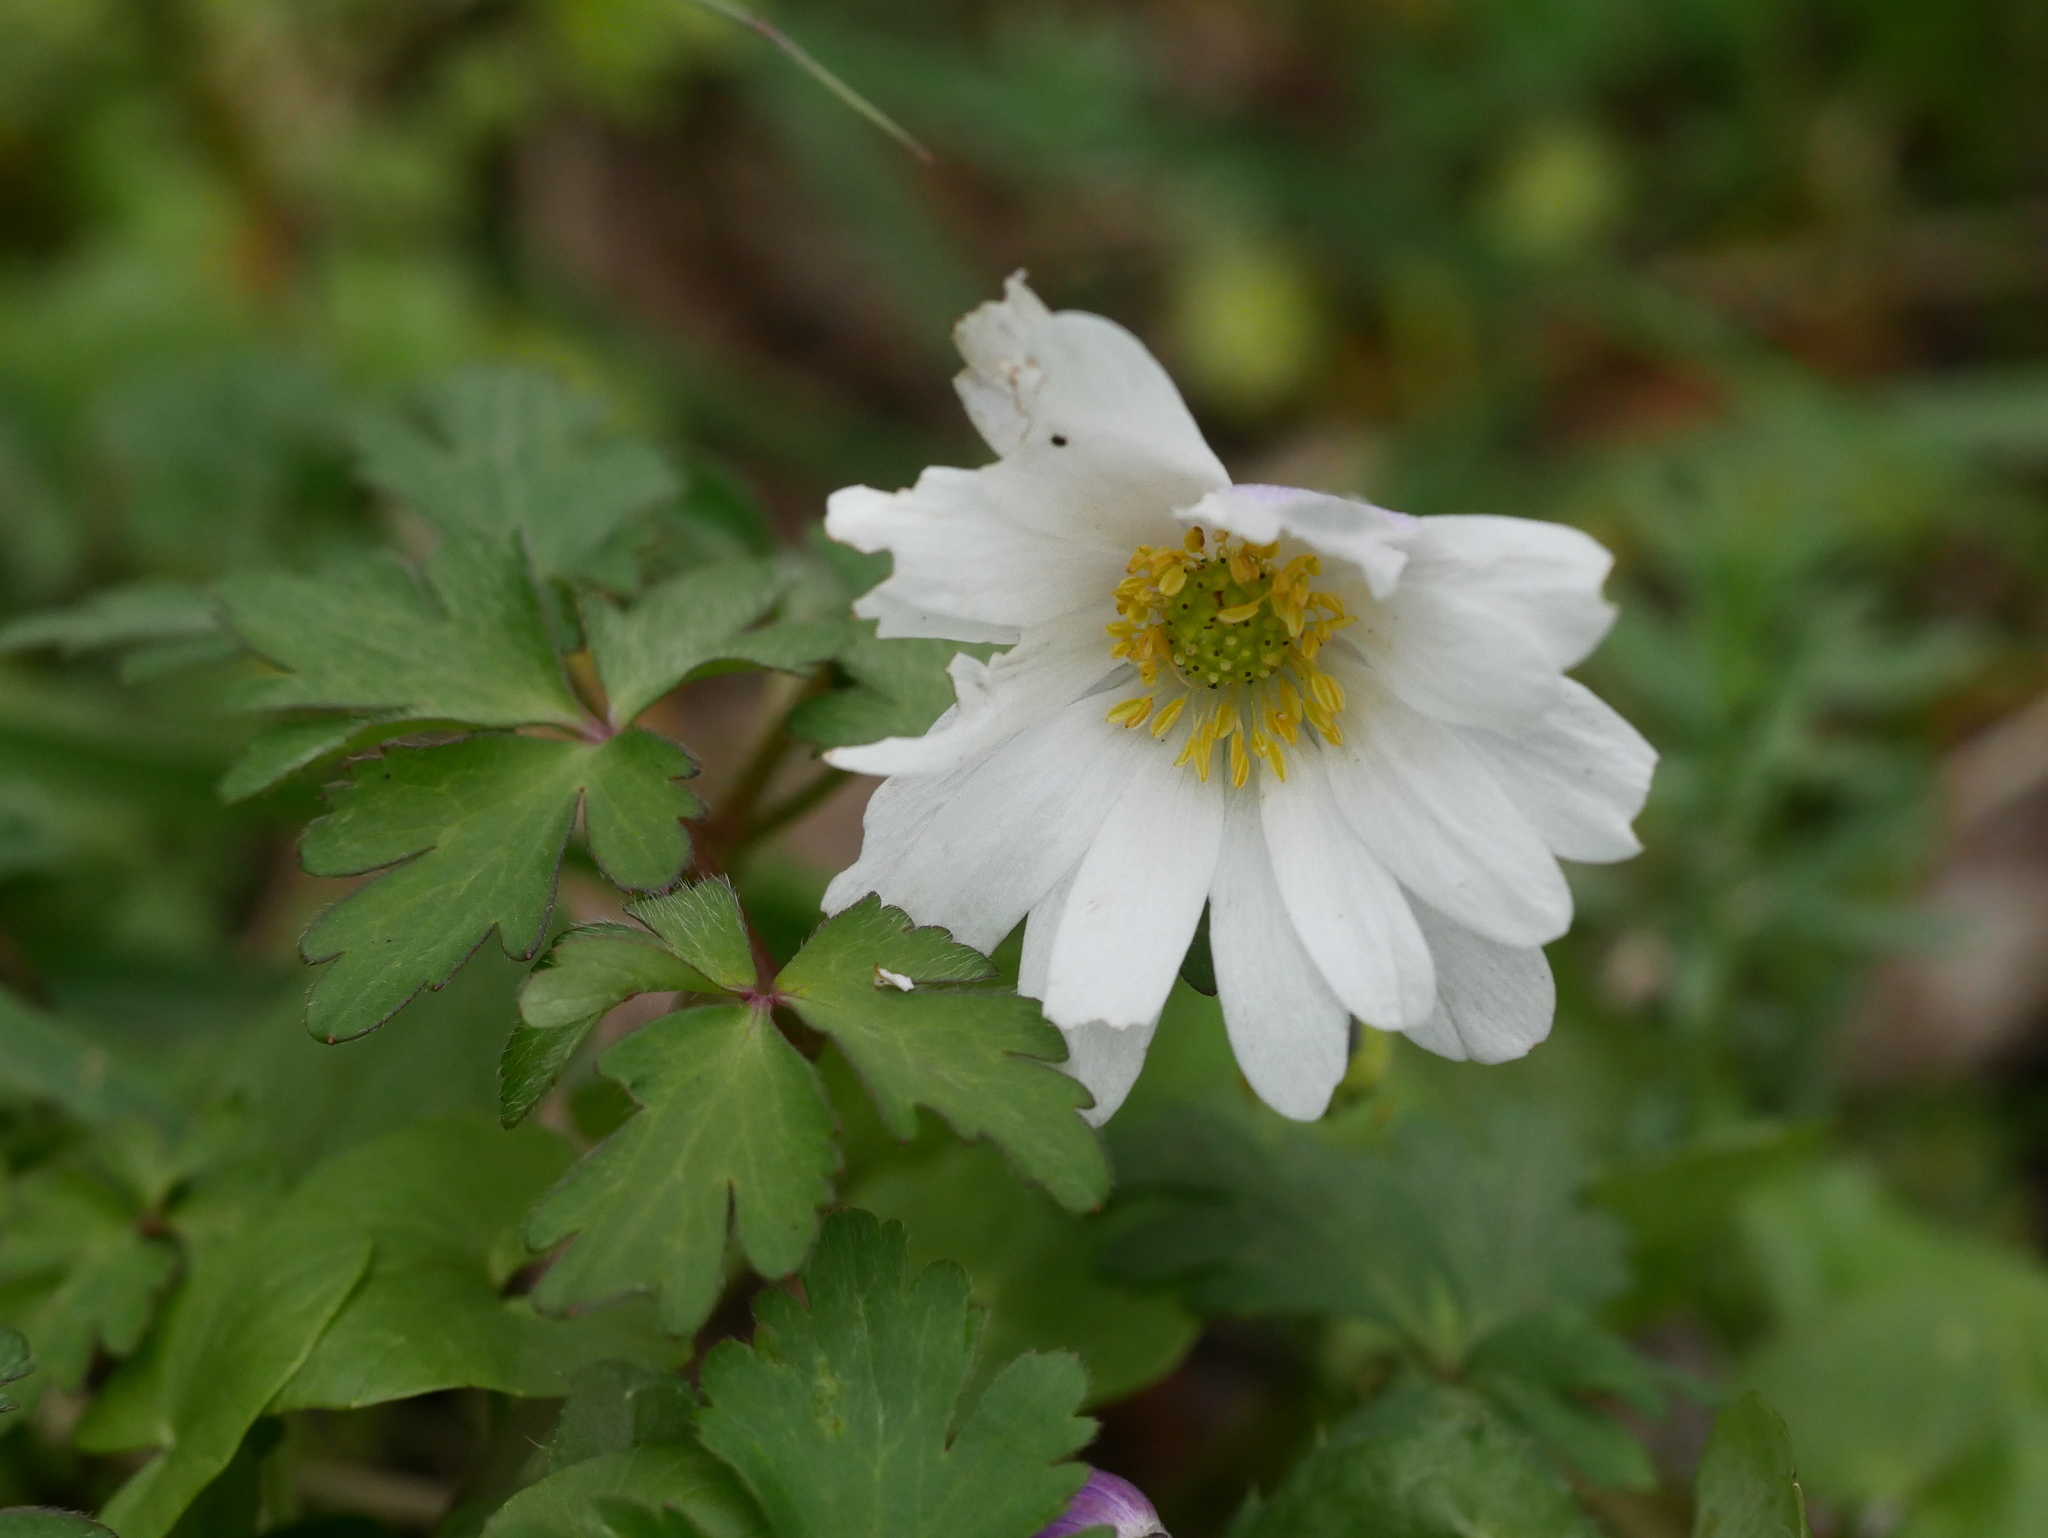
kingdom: Plantae
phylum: Tracheophyta
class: Magnoliopsida
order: Ranunculales
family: Ranunculaceae
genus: Anemone
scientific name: Anemone blanda
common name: Balkan anemone
